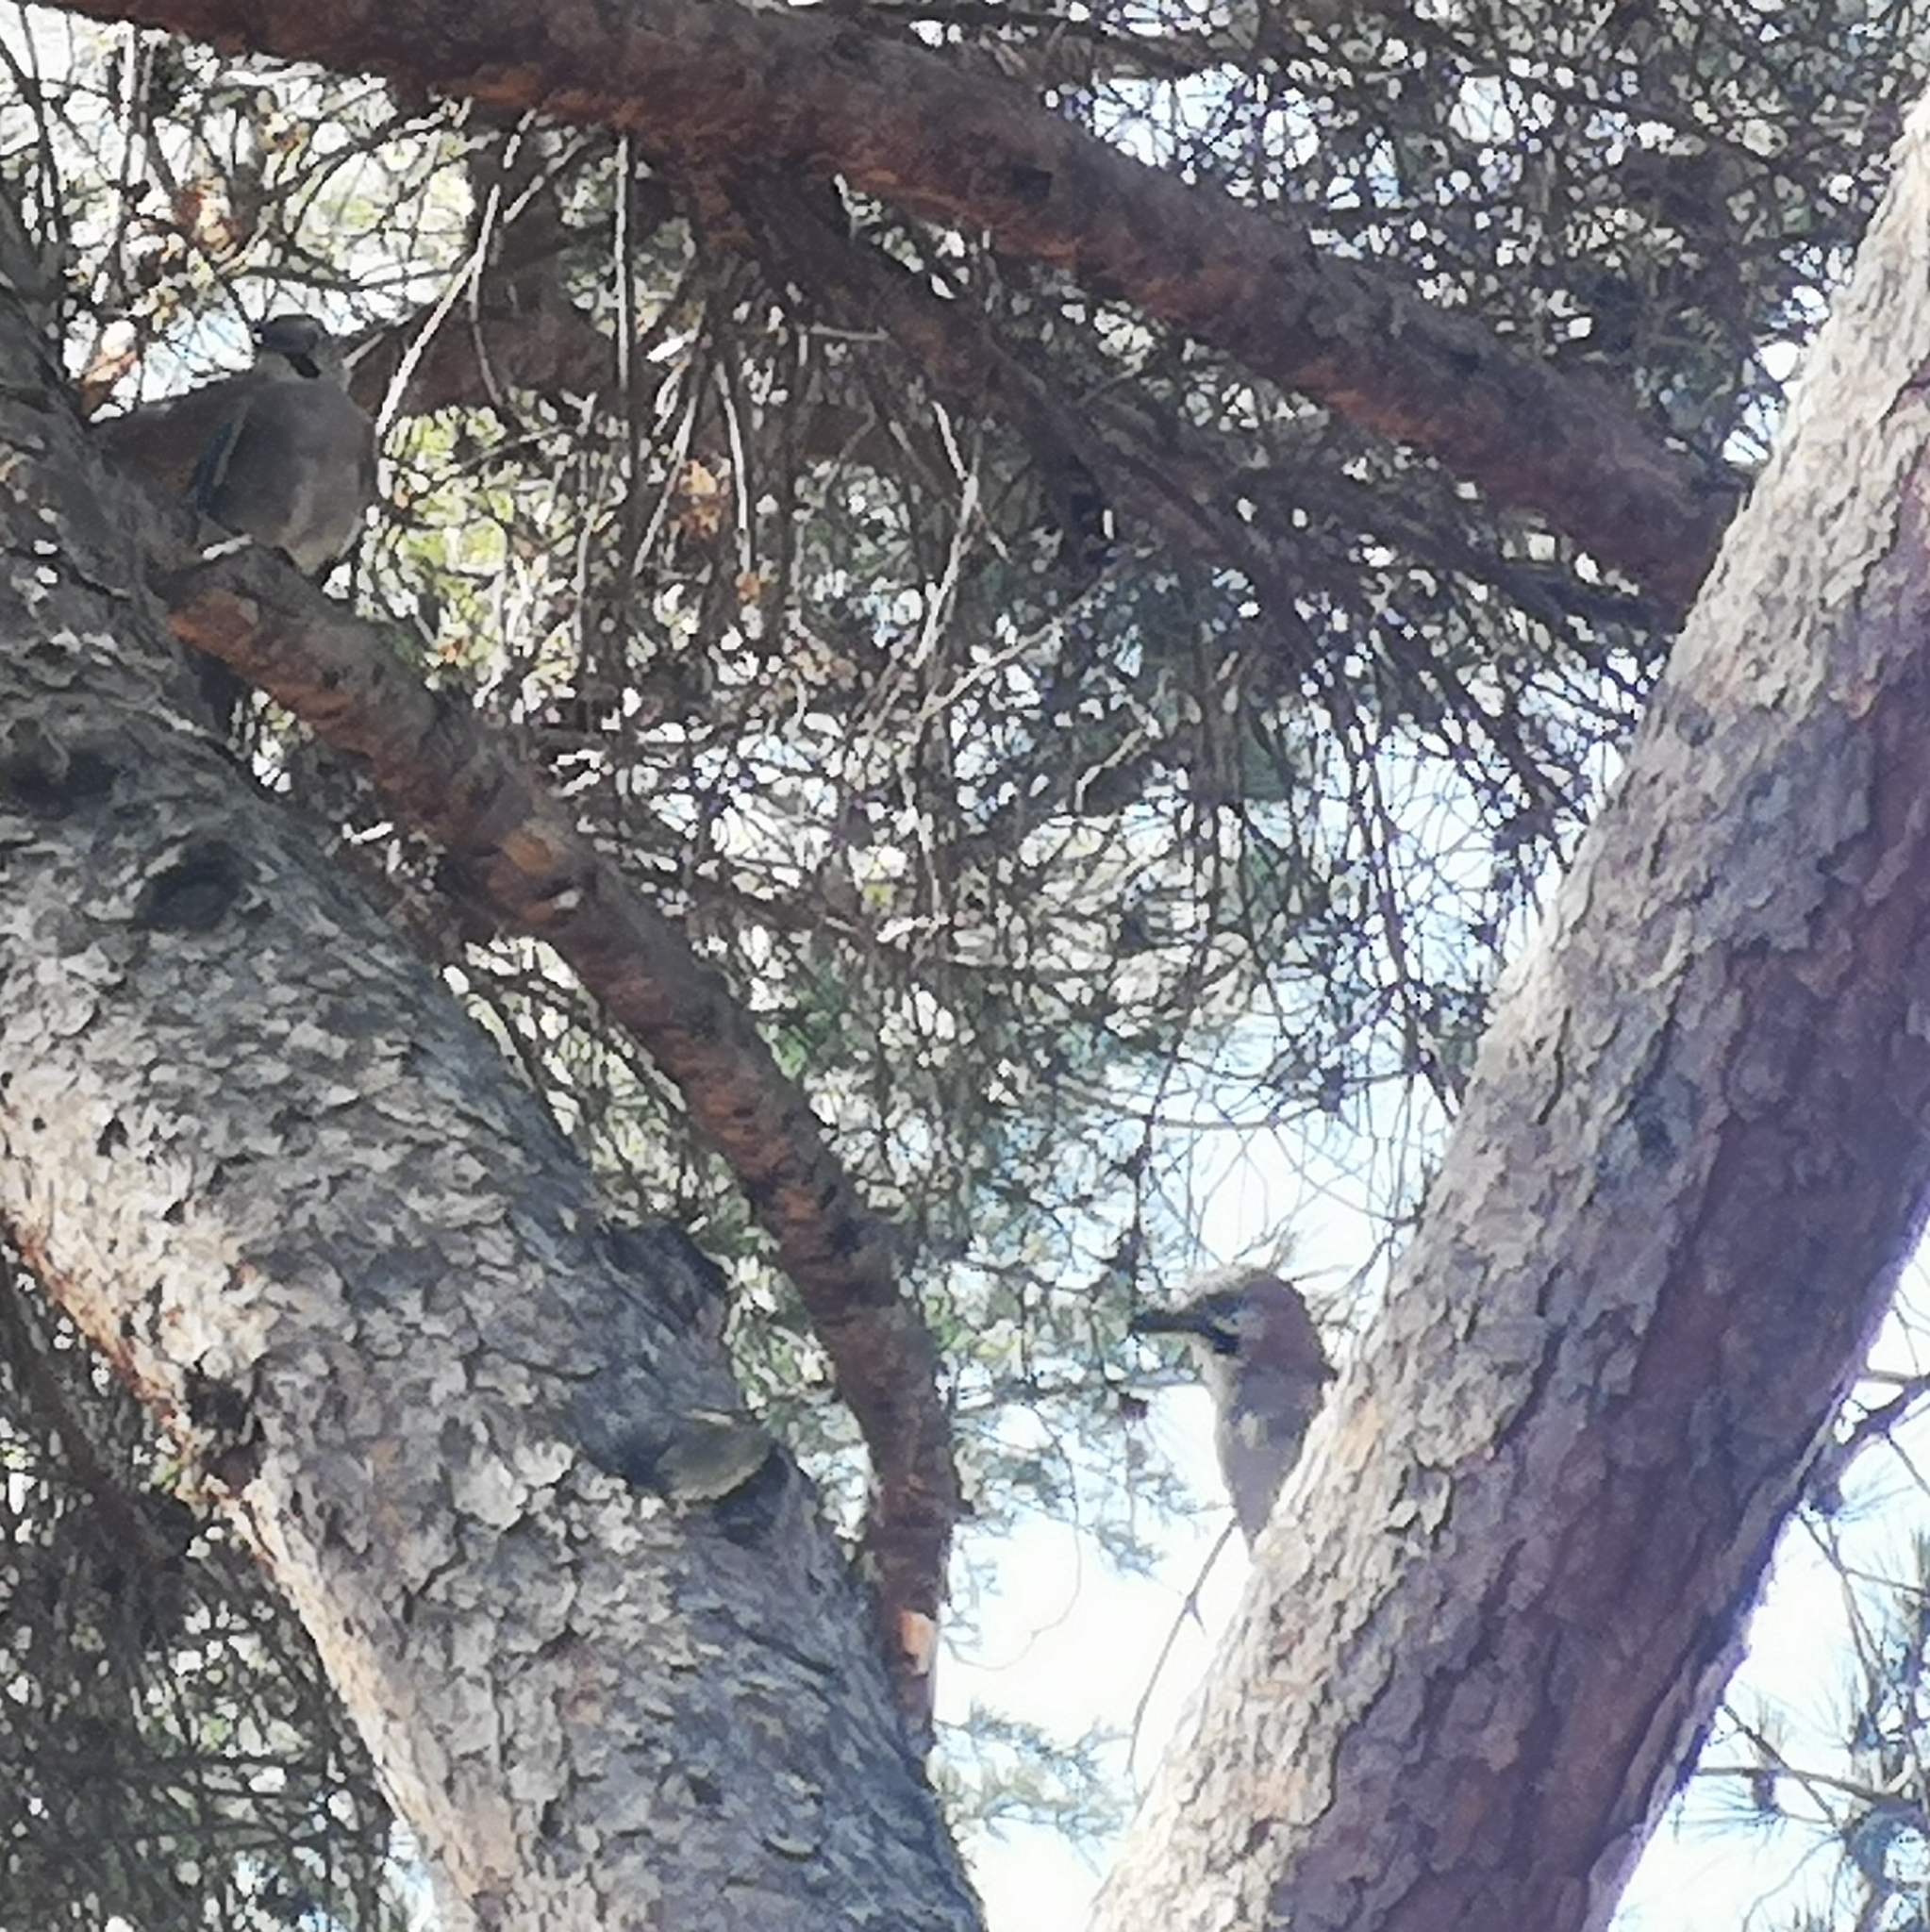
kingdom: Animalia
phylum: Chordata
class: Aves
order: Passeriformes
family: Corvidae
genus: Garrulus
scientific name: Garrulus glandarius
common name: Eurasian jay
